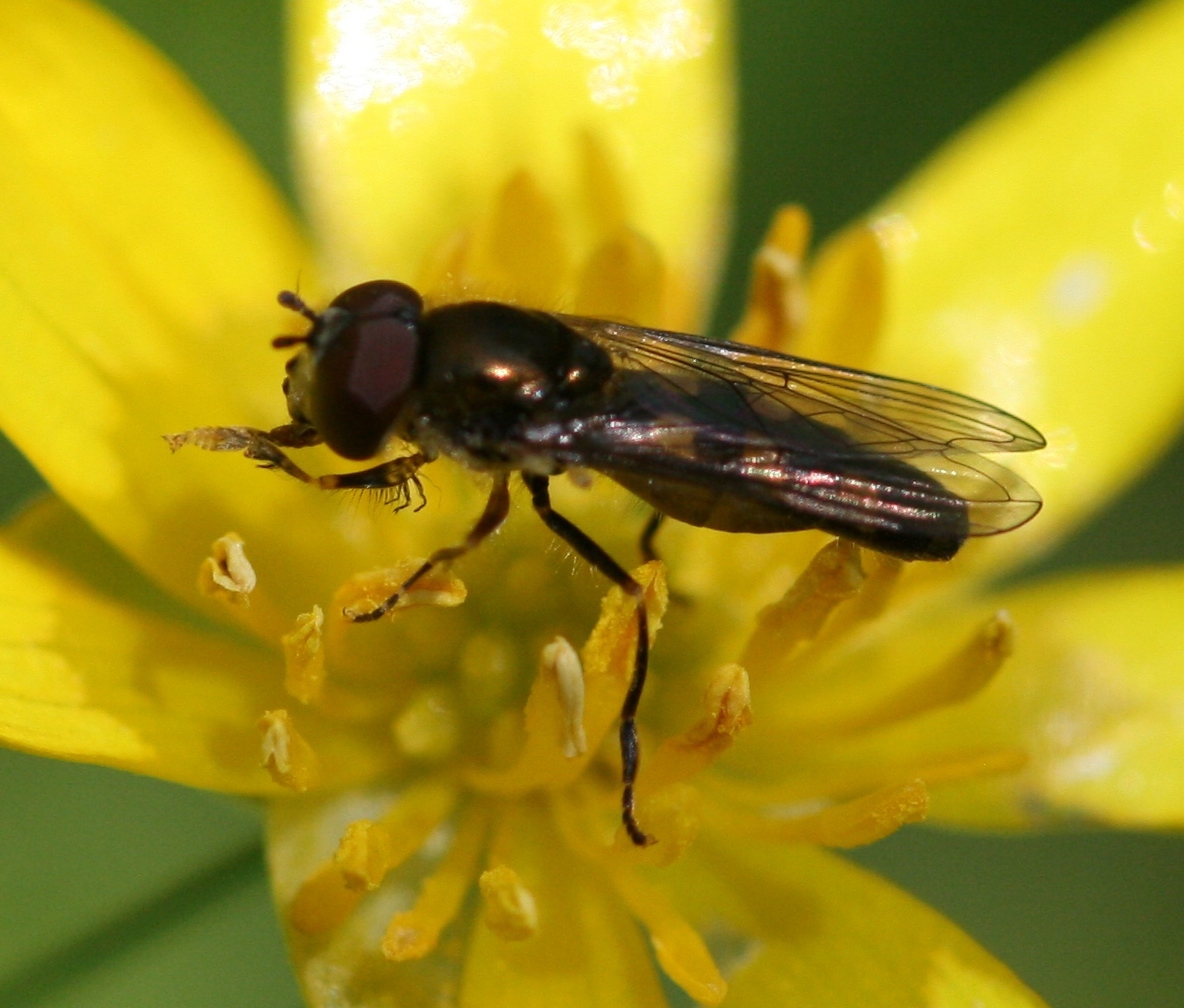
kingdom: Animalia
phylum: Arthropoda
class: Insecta
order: Diptera
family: Syrphidae
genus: Platycheirus
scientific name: Platycheirus scutatus
